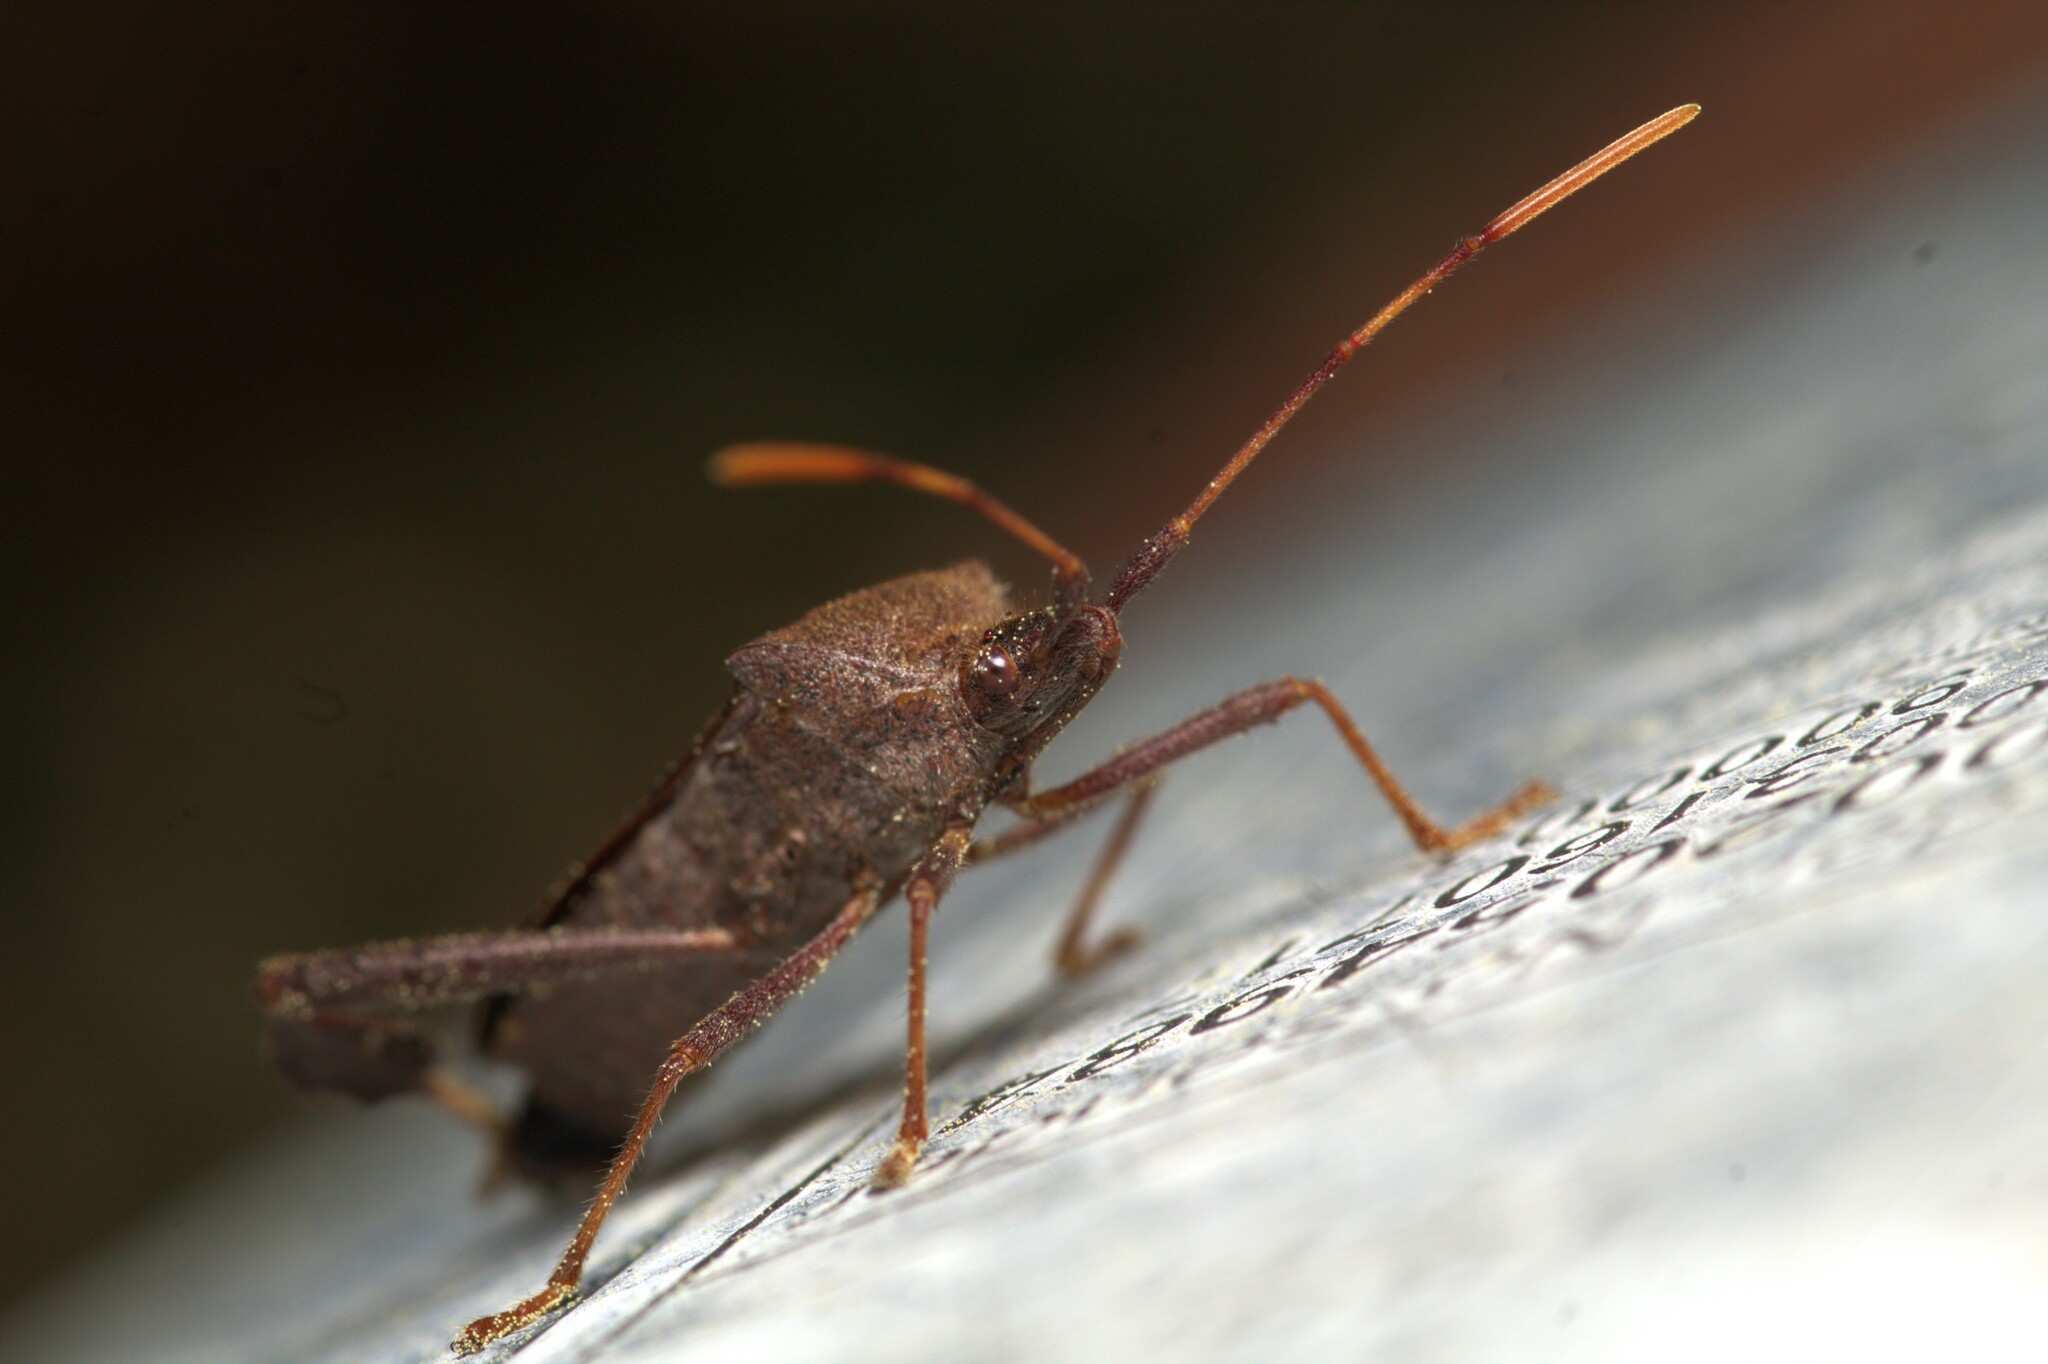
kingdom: Animalia
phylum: Arthropoda
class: Insecta
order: Hemiptera
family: Coreidae
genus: Leptoglossus
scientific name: Leptoglossus oppositus
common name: Northern leaf-footed bug
